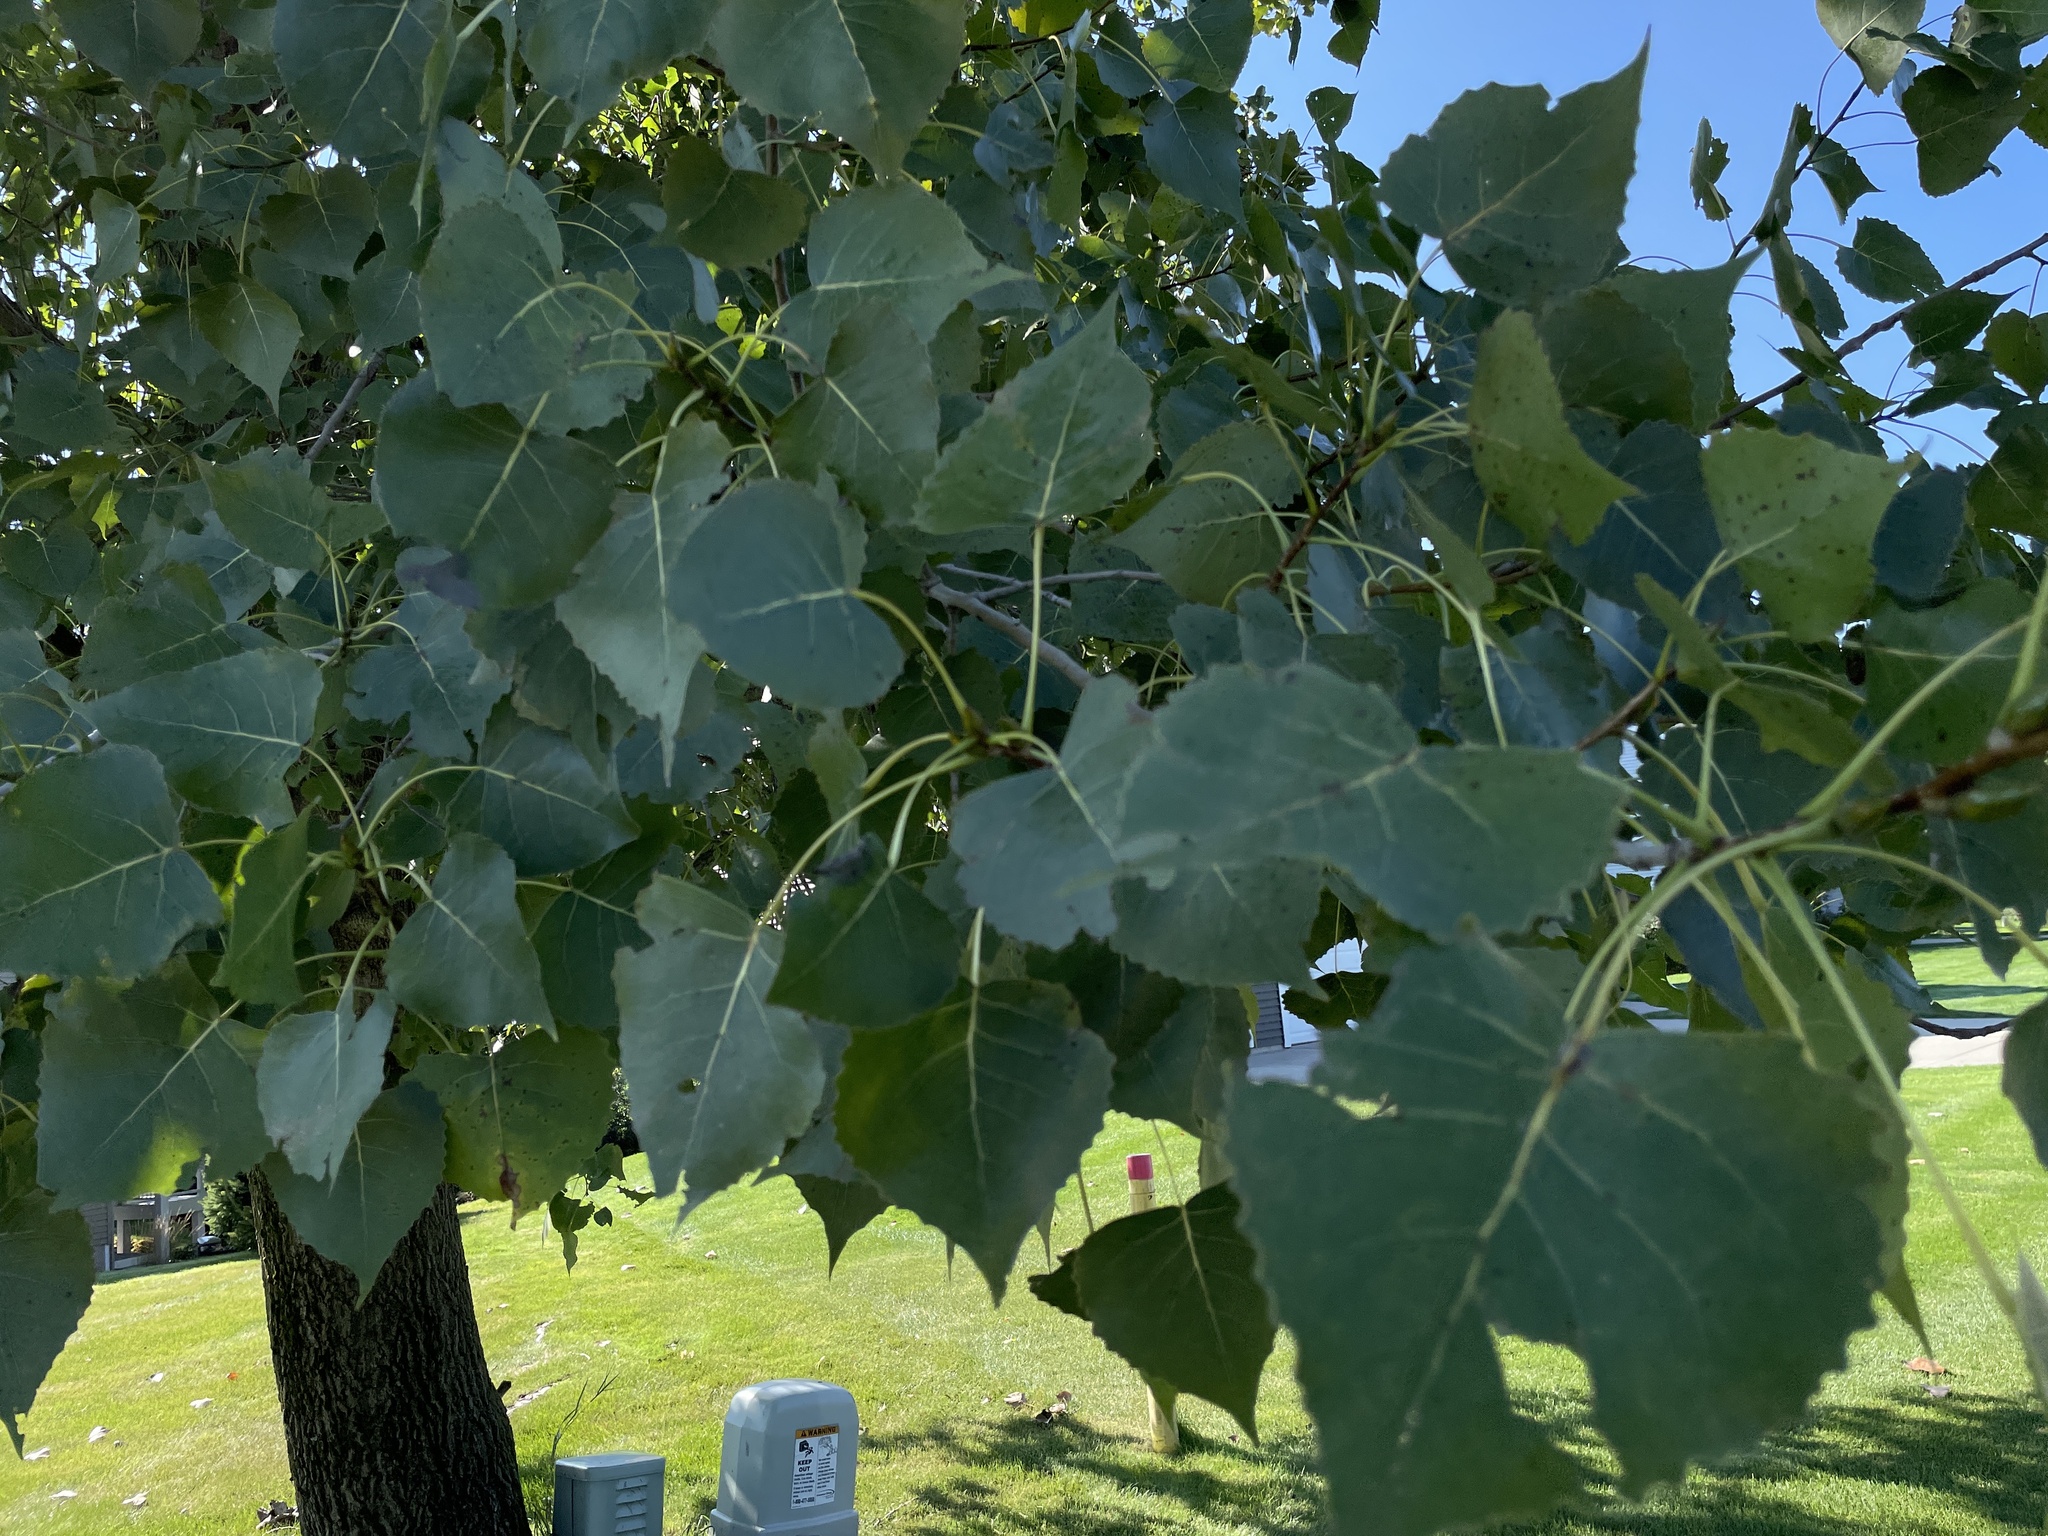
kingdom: Plantae
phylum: Tracheophyta
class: Magnoliopsida
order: Malpighiales
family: Salicaceae
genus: Populus
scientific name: Populus deltoides
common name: Eastern cottonwood
